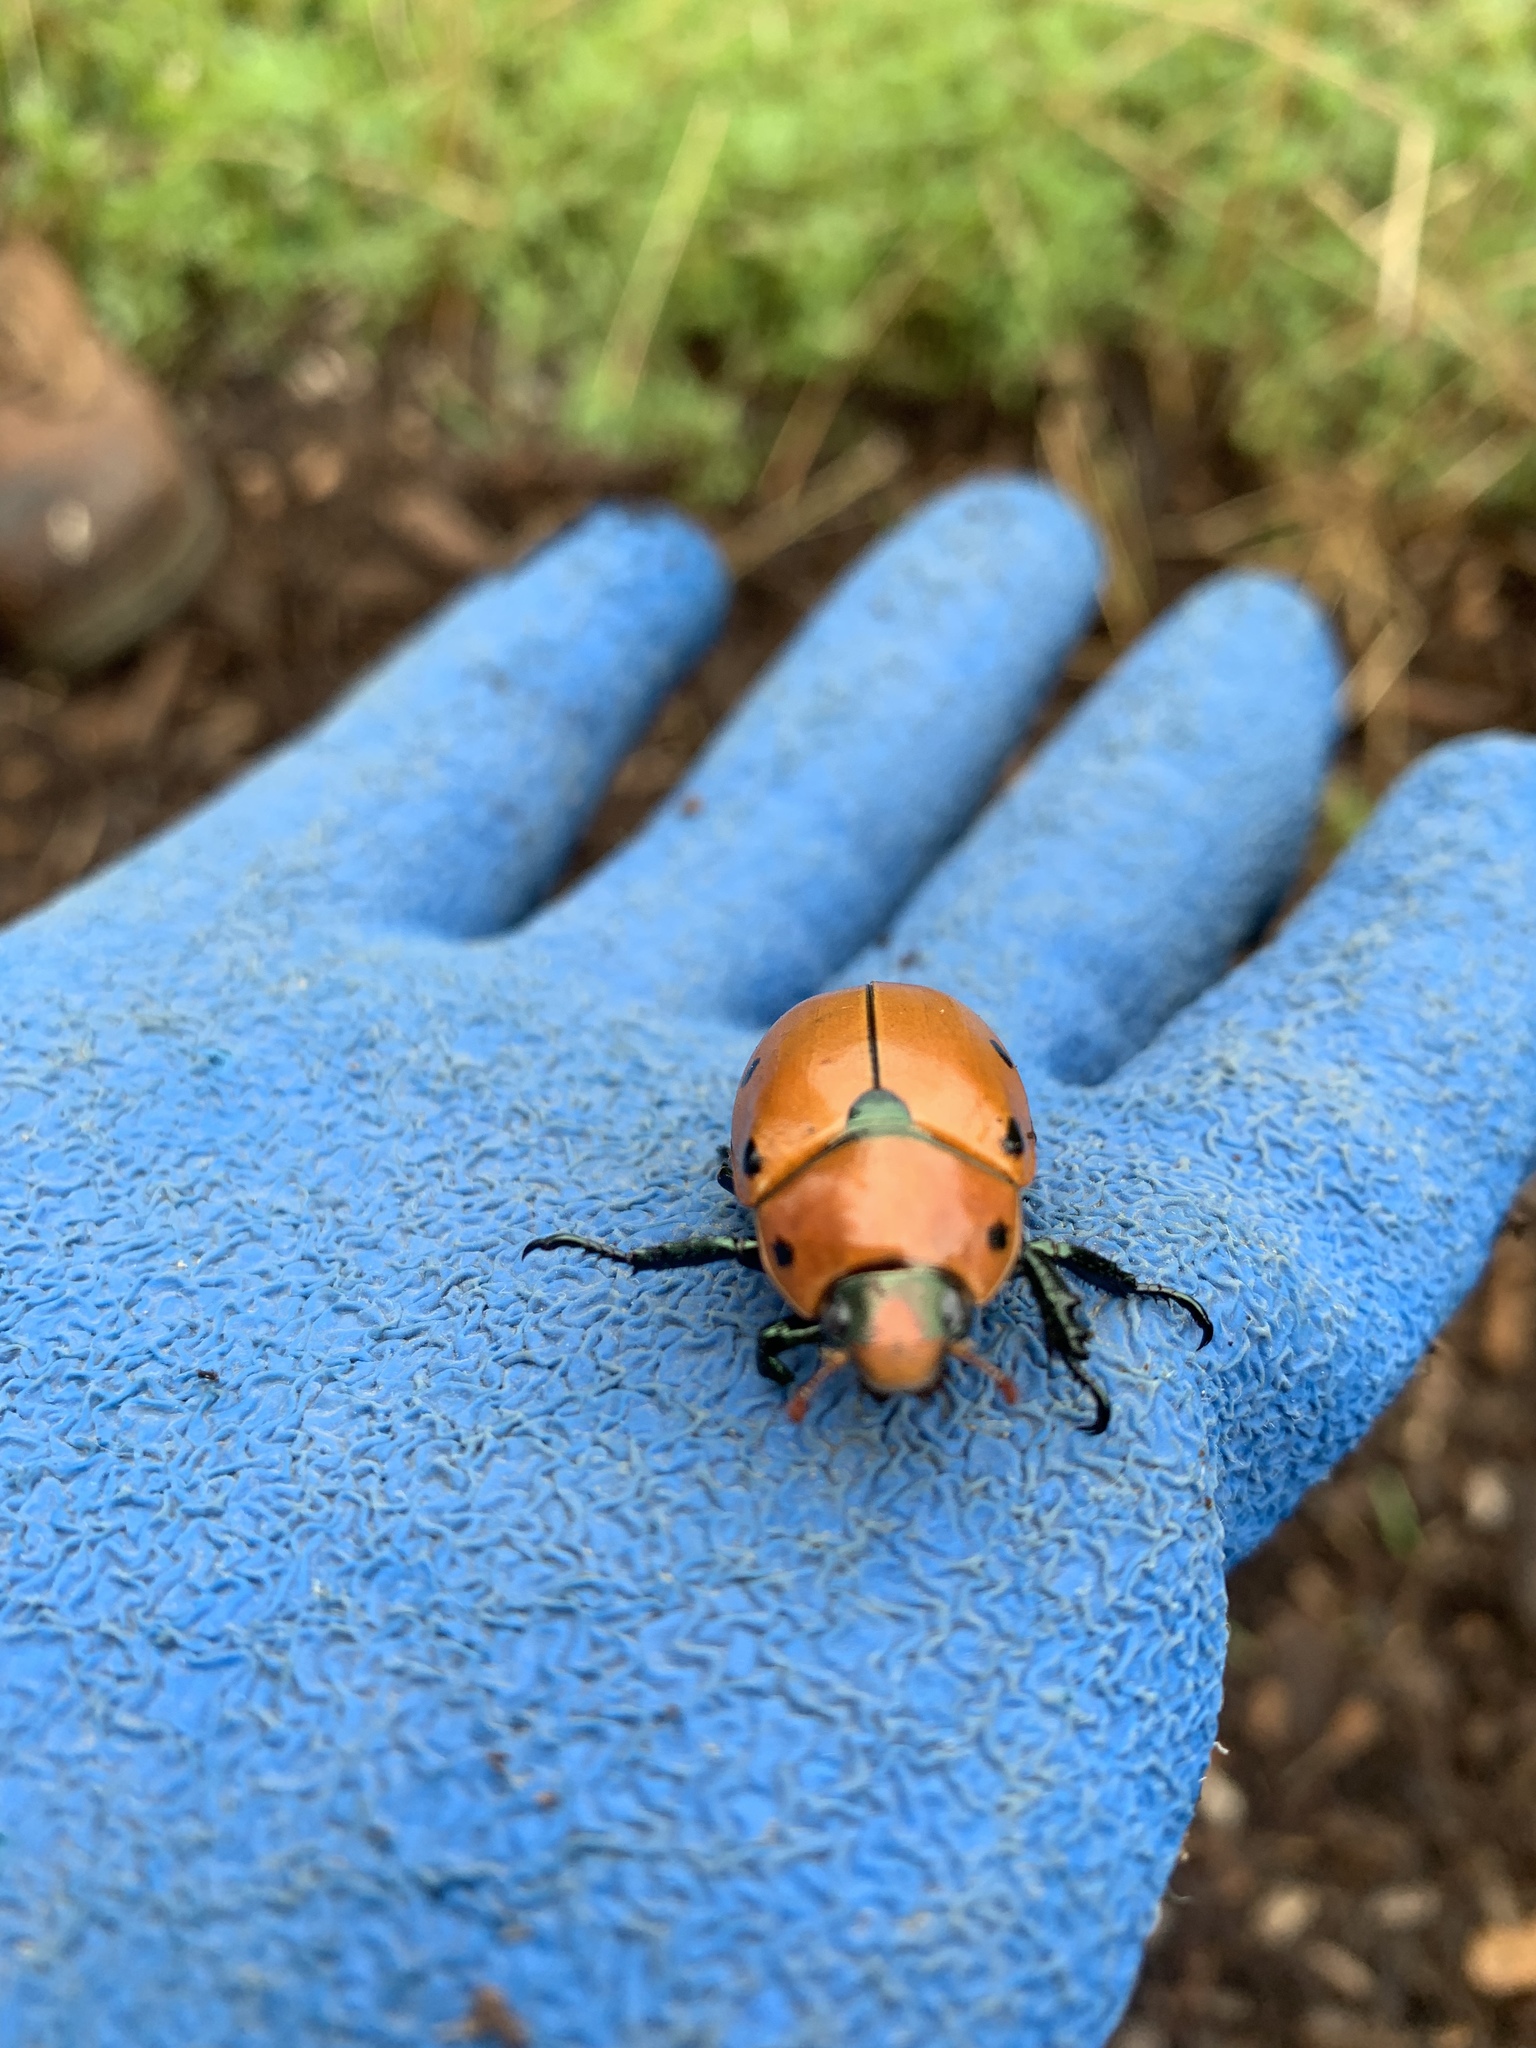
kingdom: Animalia
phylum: Arthropoda
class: Insecta
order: Coleoptera
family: Scarabaeidae
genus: Pelidnota
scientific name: Pelidnota punctata
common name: Grapevine beetle
